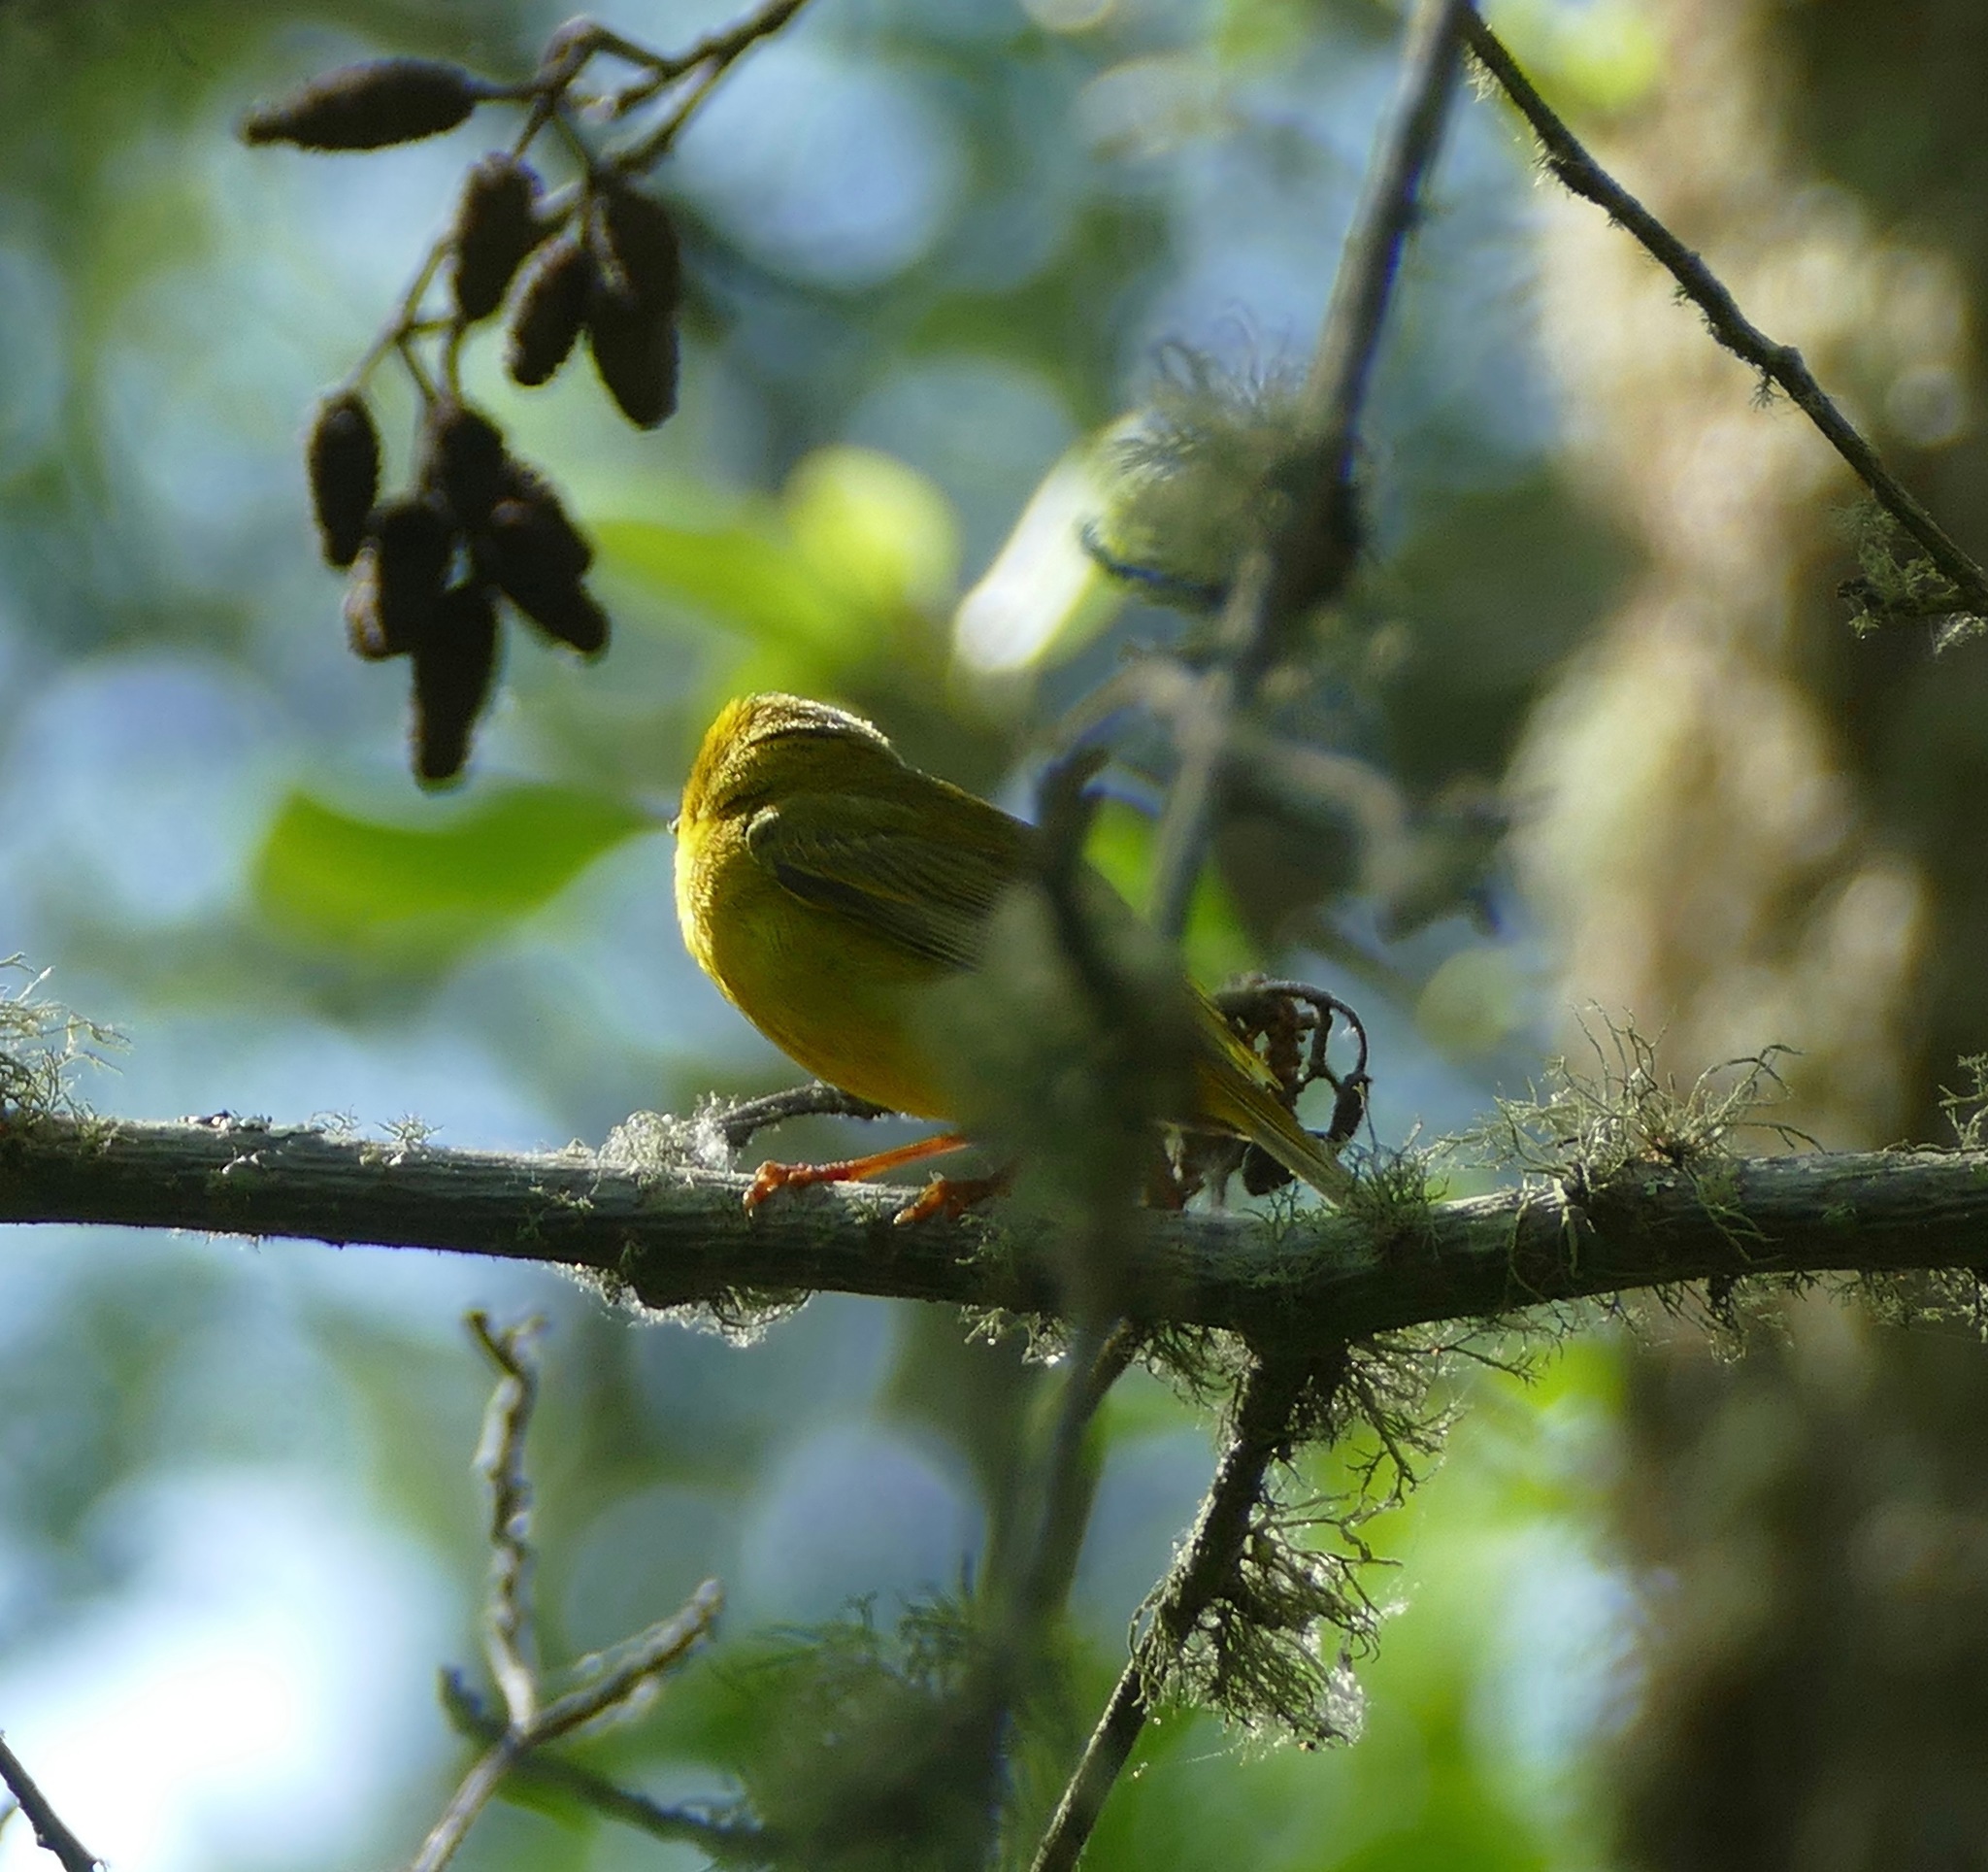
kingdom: Animalia
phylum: Chordata
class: Aves
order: Passeriformes
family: Parulidae
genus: Cardellina
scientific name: Cardellina pusilla
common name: Wilson's warbler
